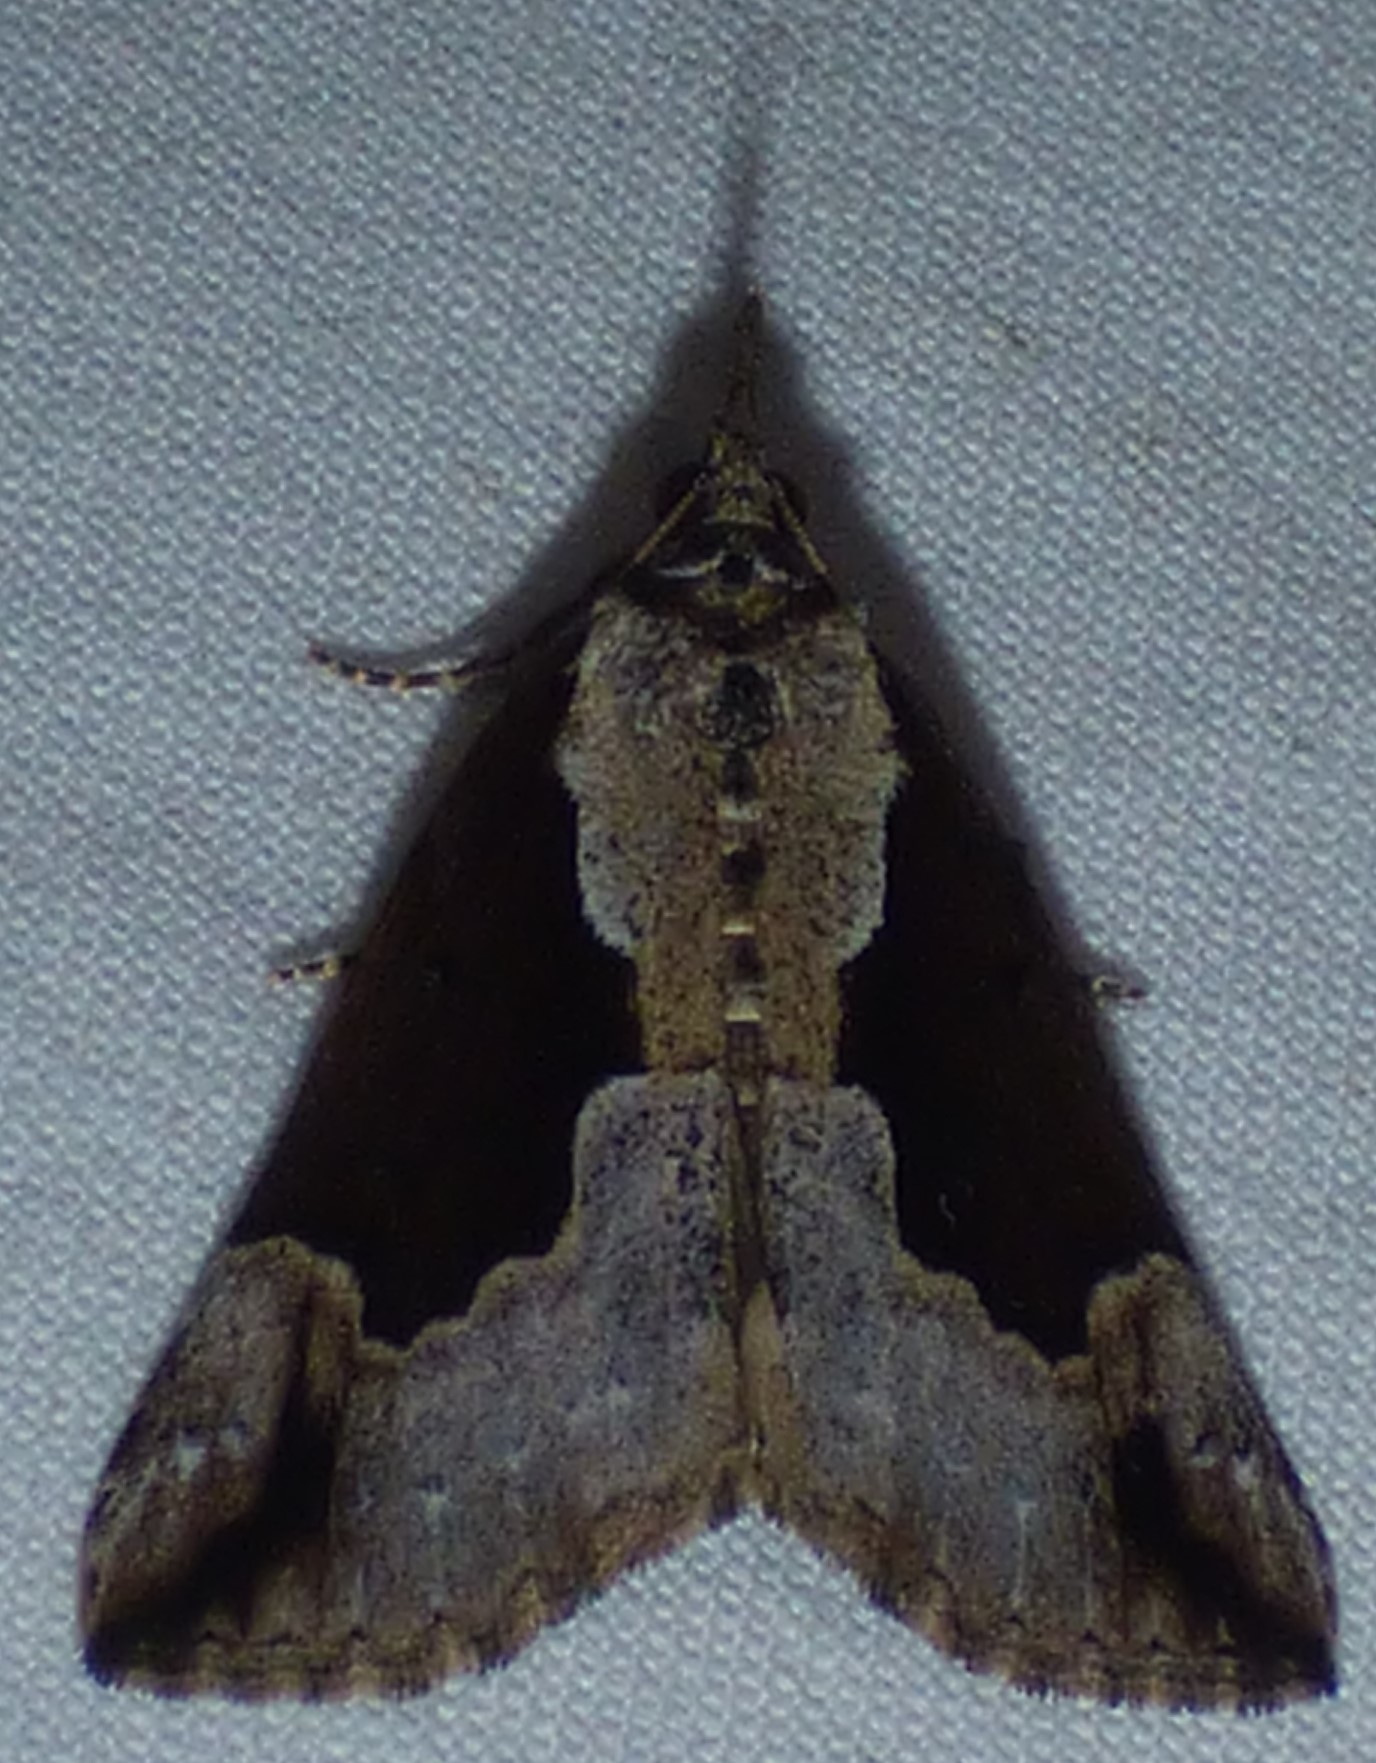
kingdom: Animalia
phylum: Arthropoda
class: Insecta
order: Lepidoptera
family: Erebidae
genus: Hypena
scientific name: Hypena baltimoralis
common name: Baltimore snout
